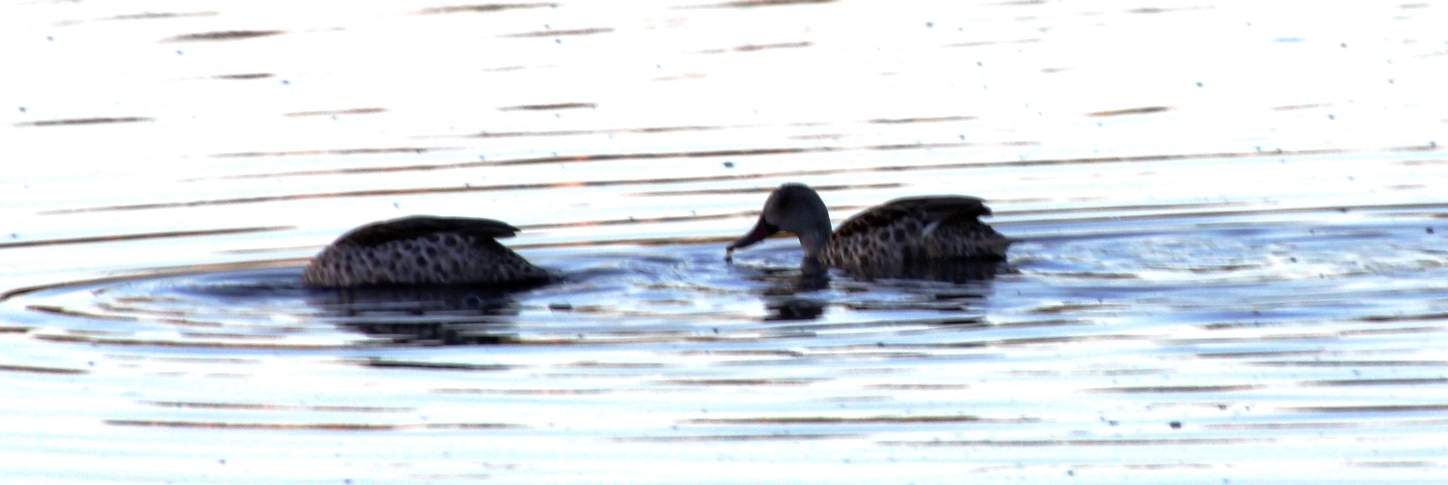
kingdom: Animalia
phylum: Chordata
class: Aves
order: Anseriformes
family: Anatidae
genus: Anas
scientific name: Anas capensis
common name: Cape teal
